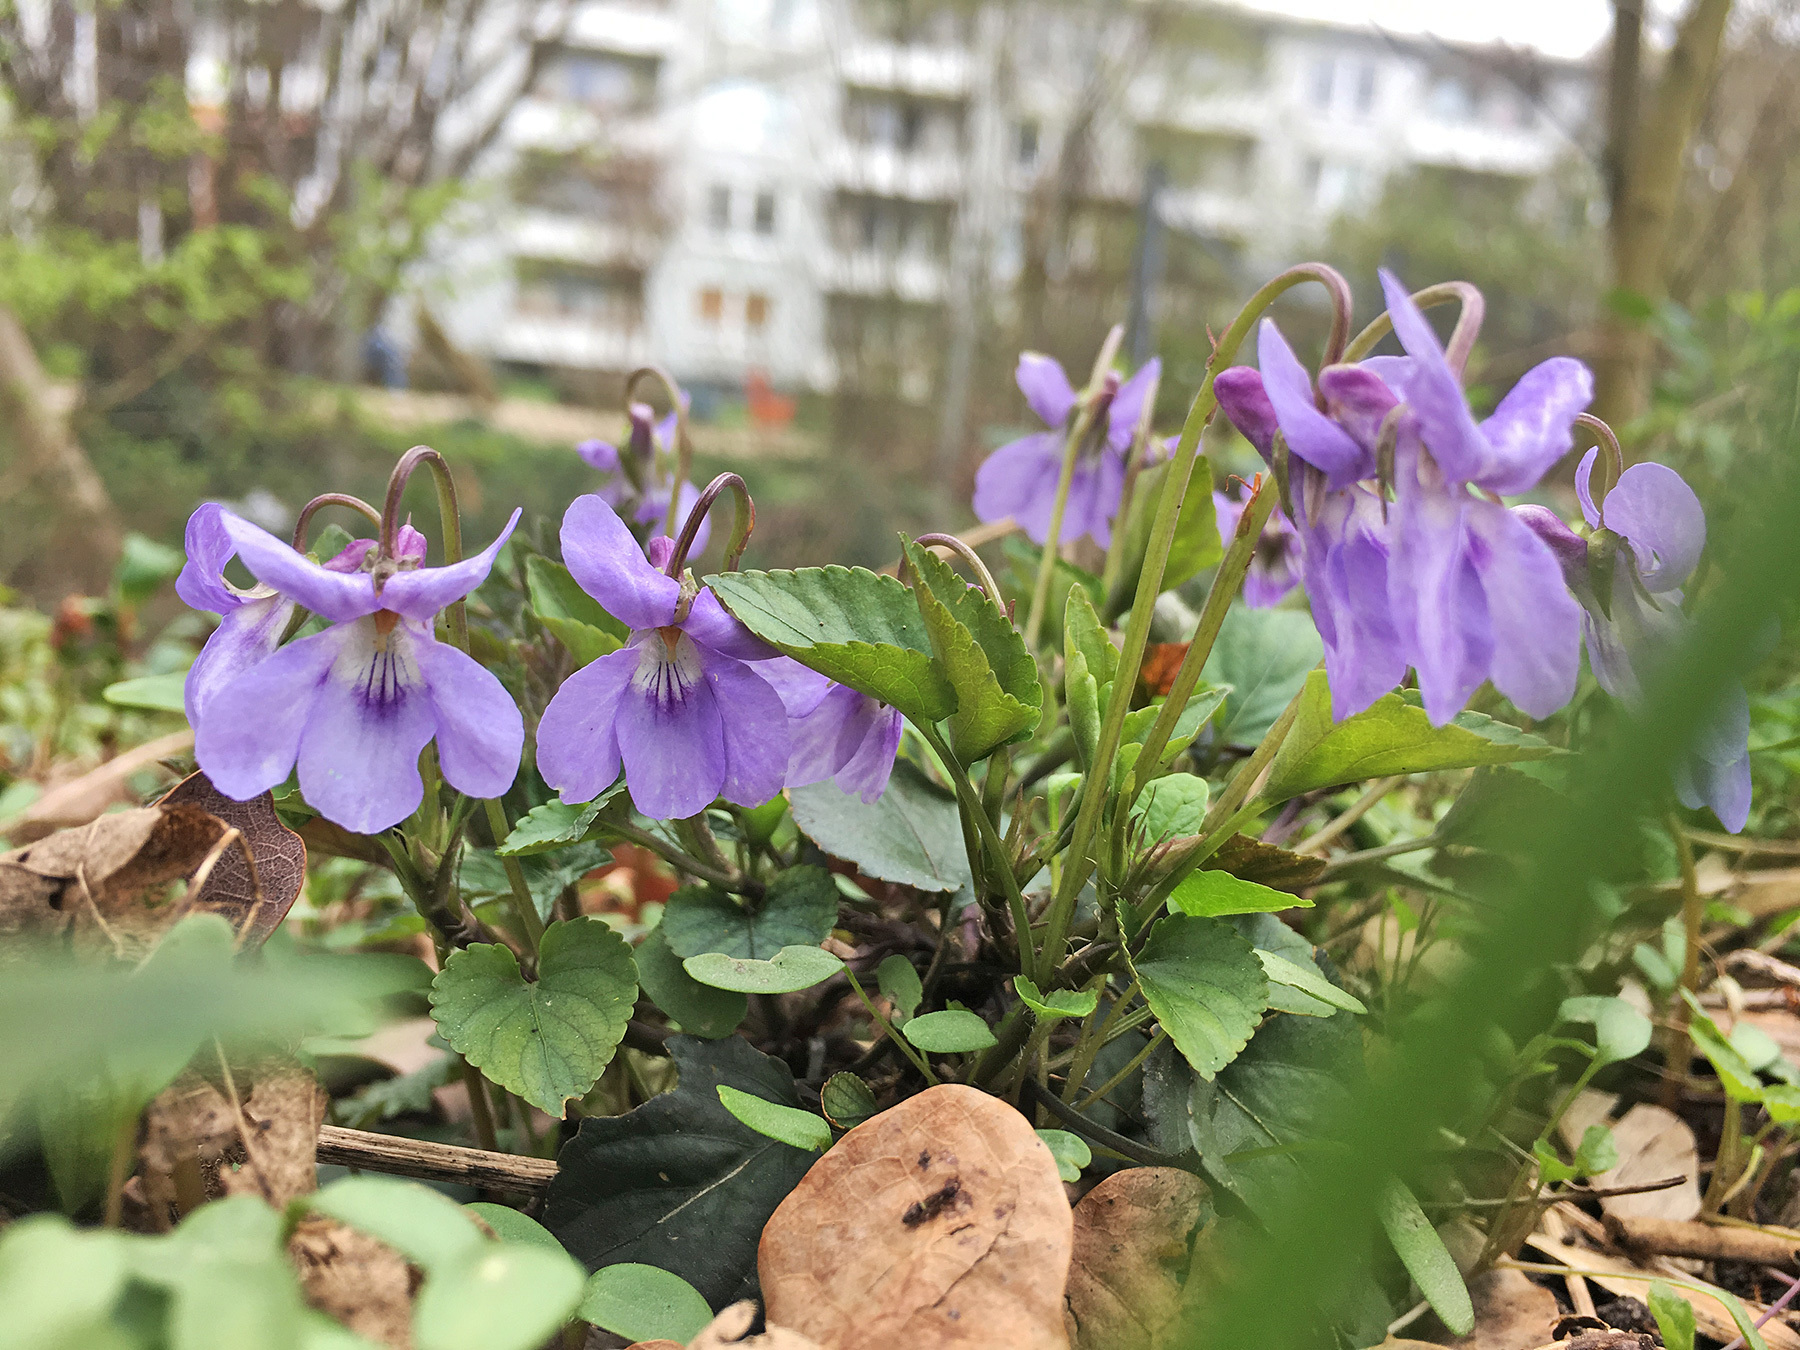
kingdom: Plantae
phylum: Tracheophyta
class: Magnoliopsida
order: Malpighiales
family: Violaceae
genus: Viola
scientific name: Viola reichenbachiana
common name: Early dog-violet
